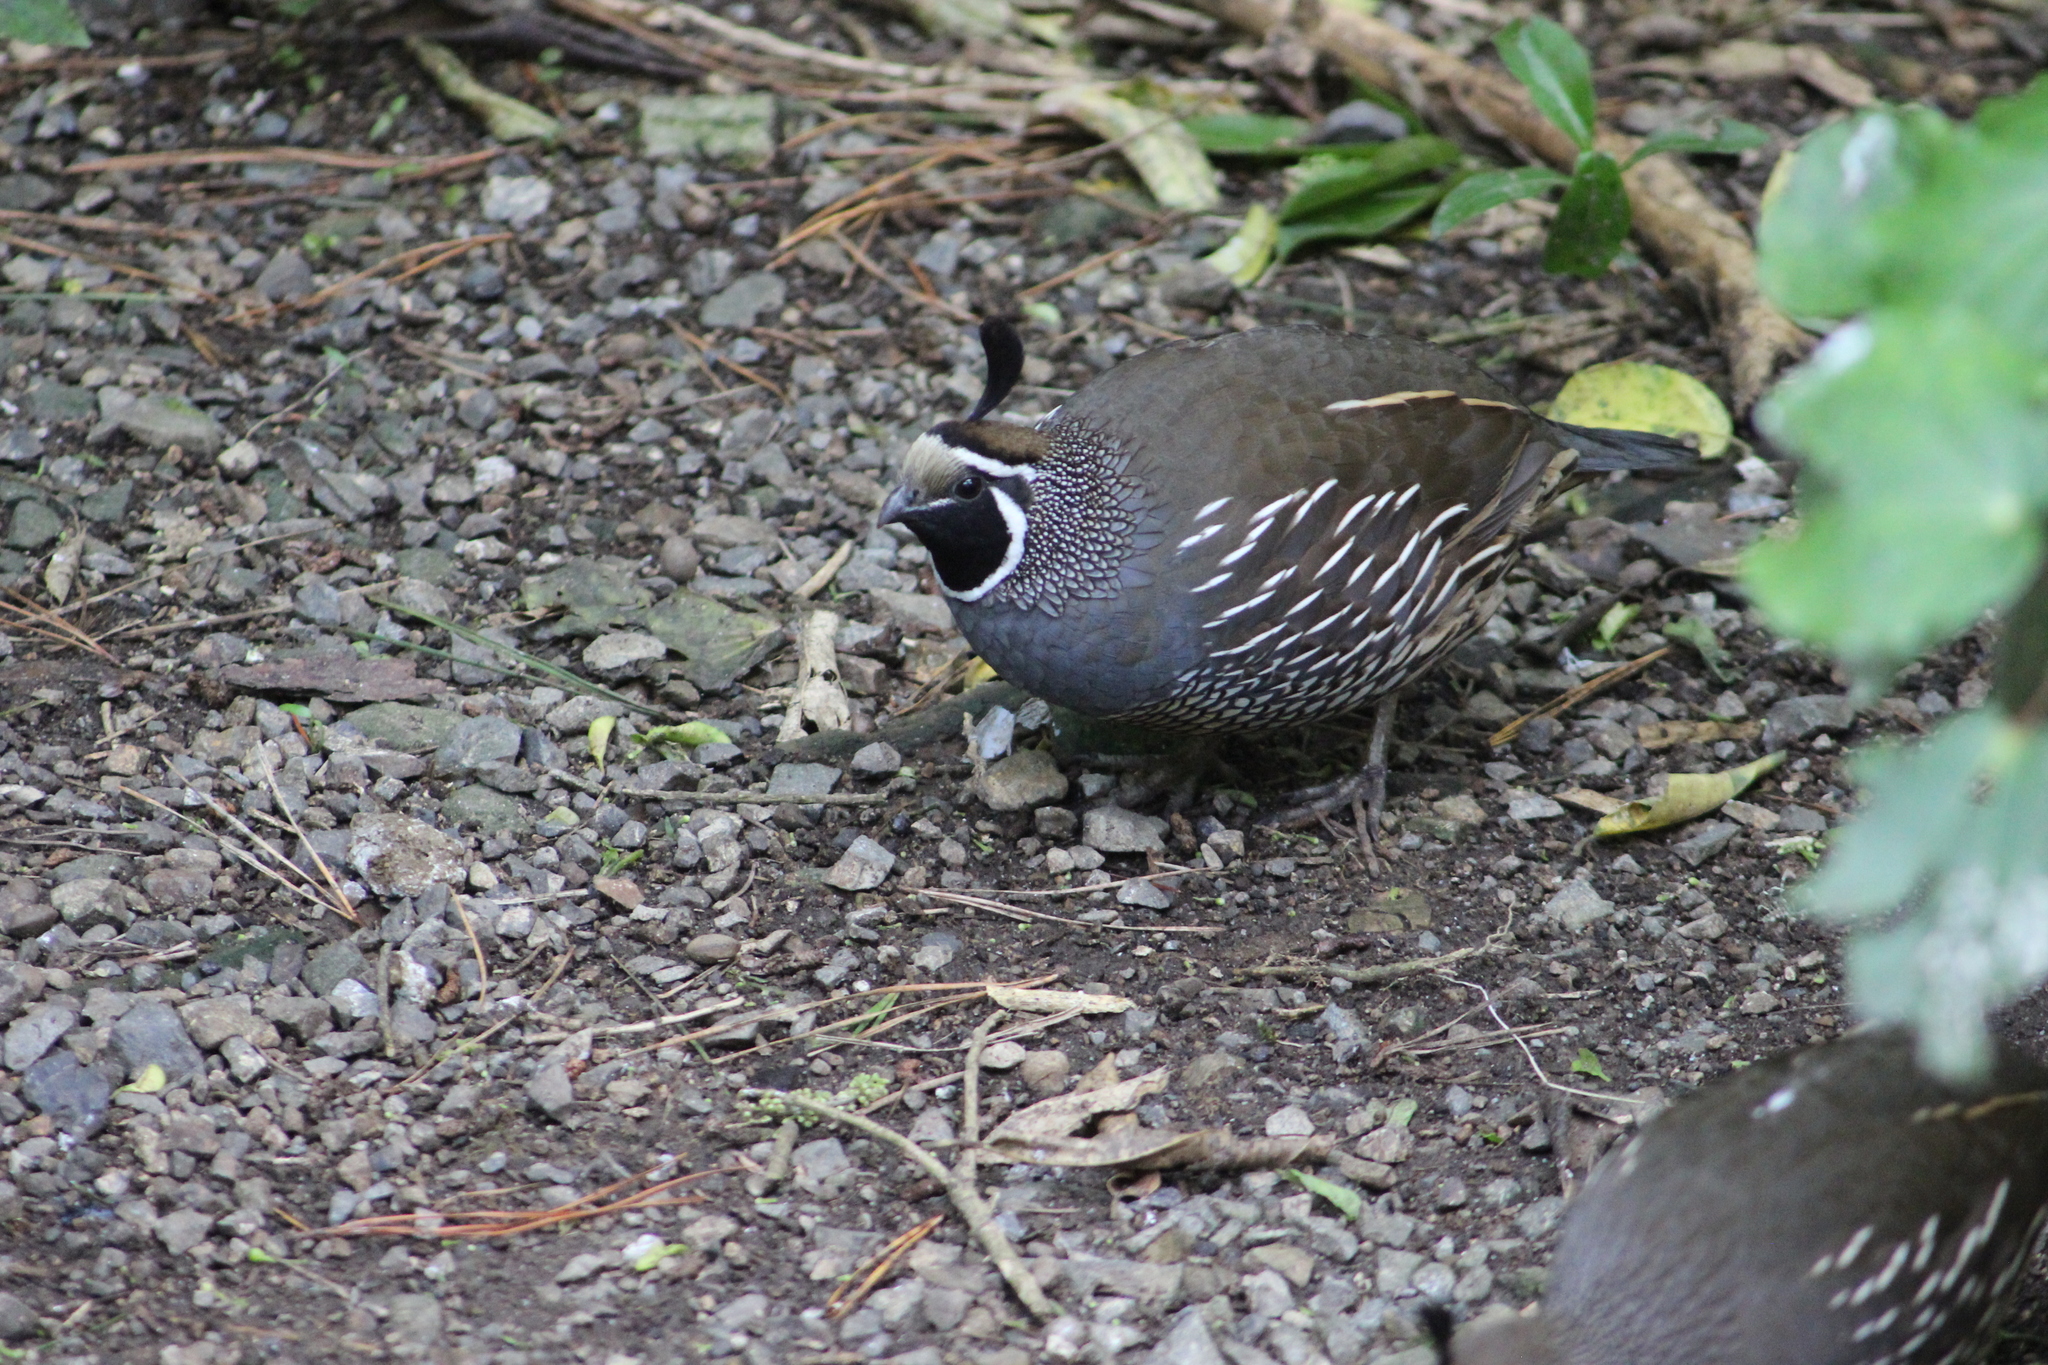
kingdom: Animalia
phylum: Chordata
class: Aves
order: Galliformes
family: Odontophoridae
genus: Callipepla
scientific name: Callipepla californica
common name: California quail
